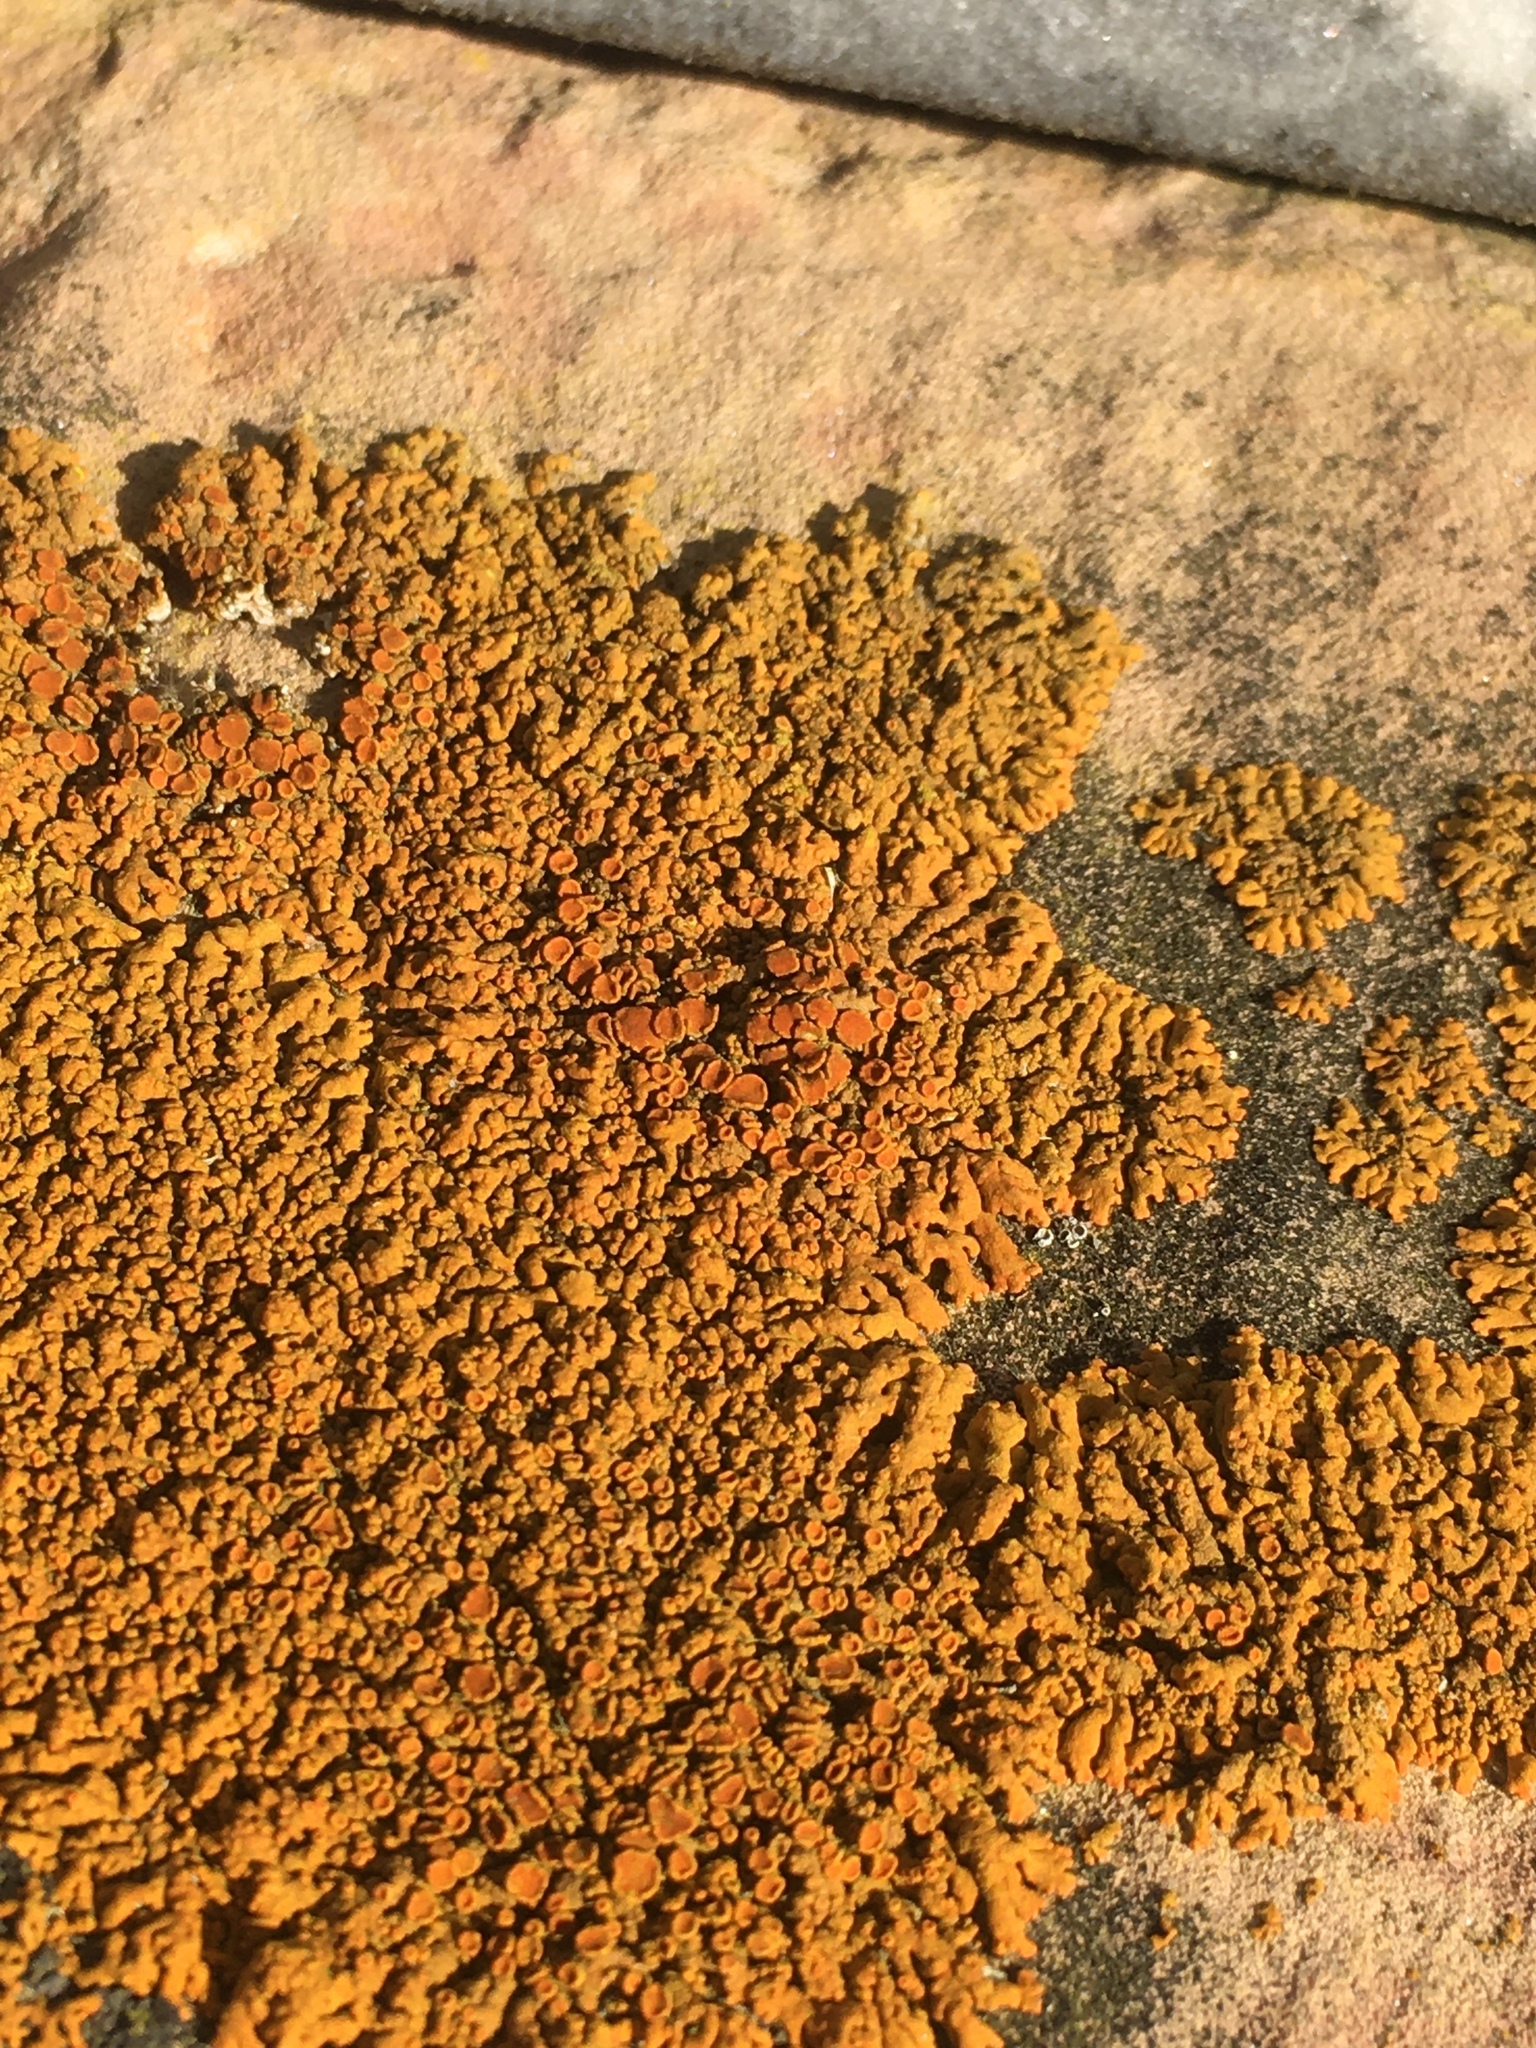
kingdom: Fungi
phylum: Ascomycota
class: Lecanoromycetes
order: Teloschistales
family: Teloschistaceae
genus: Xanthoria
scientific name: Xanthoria elegans
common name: Elegant sunburst lichen
